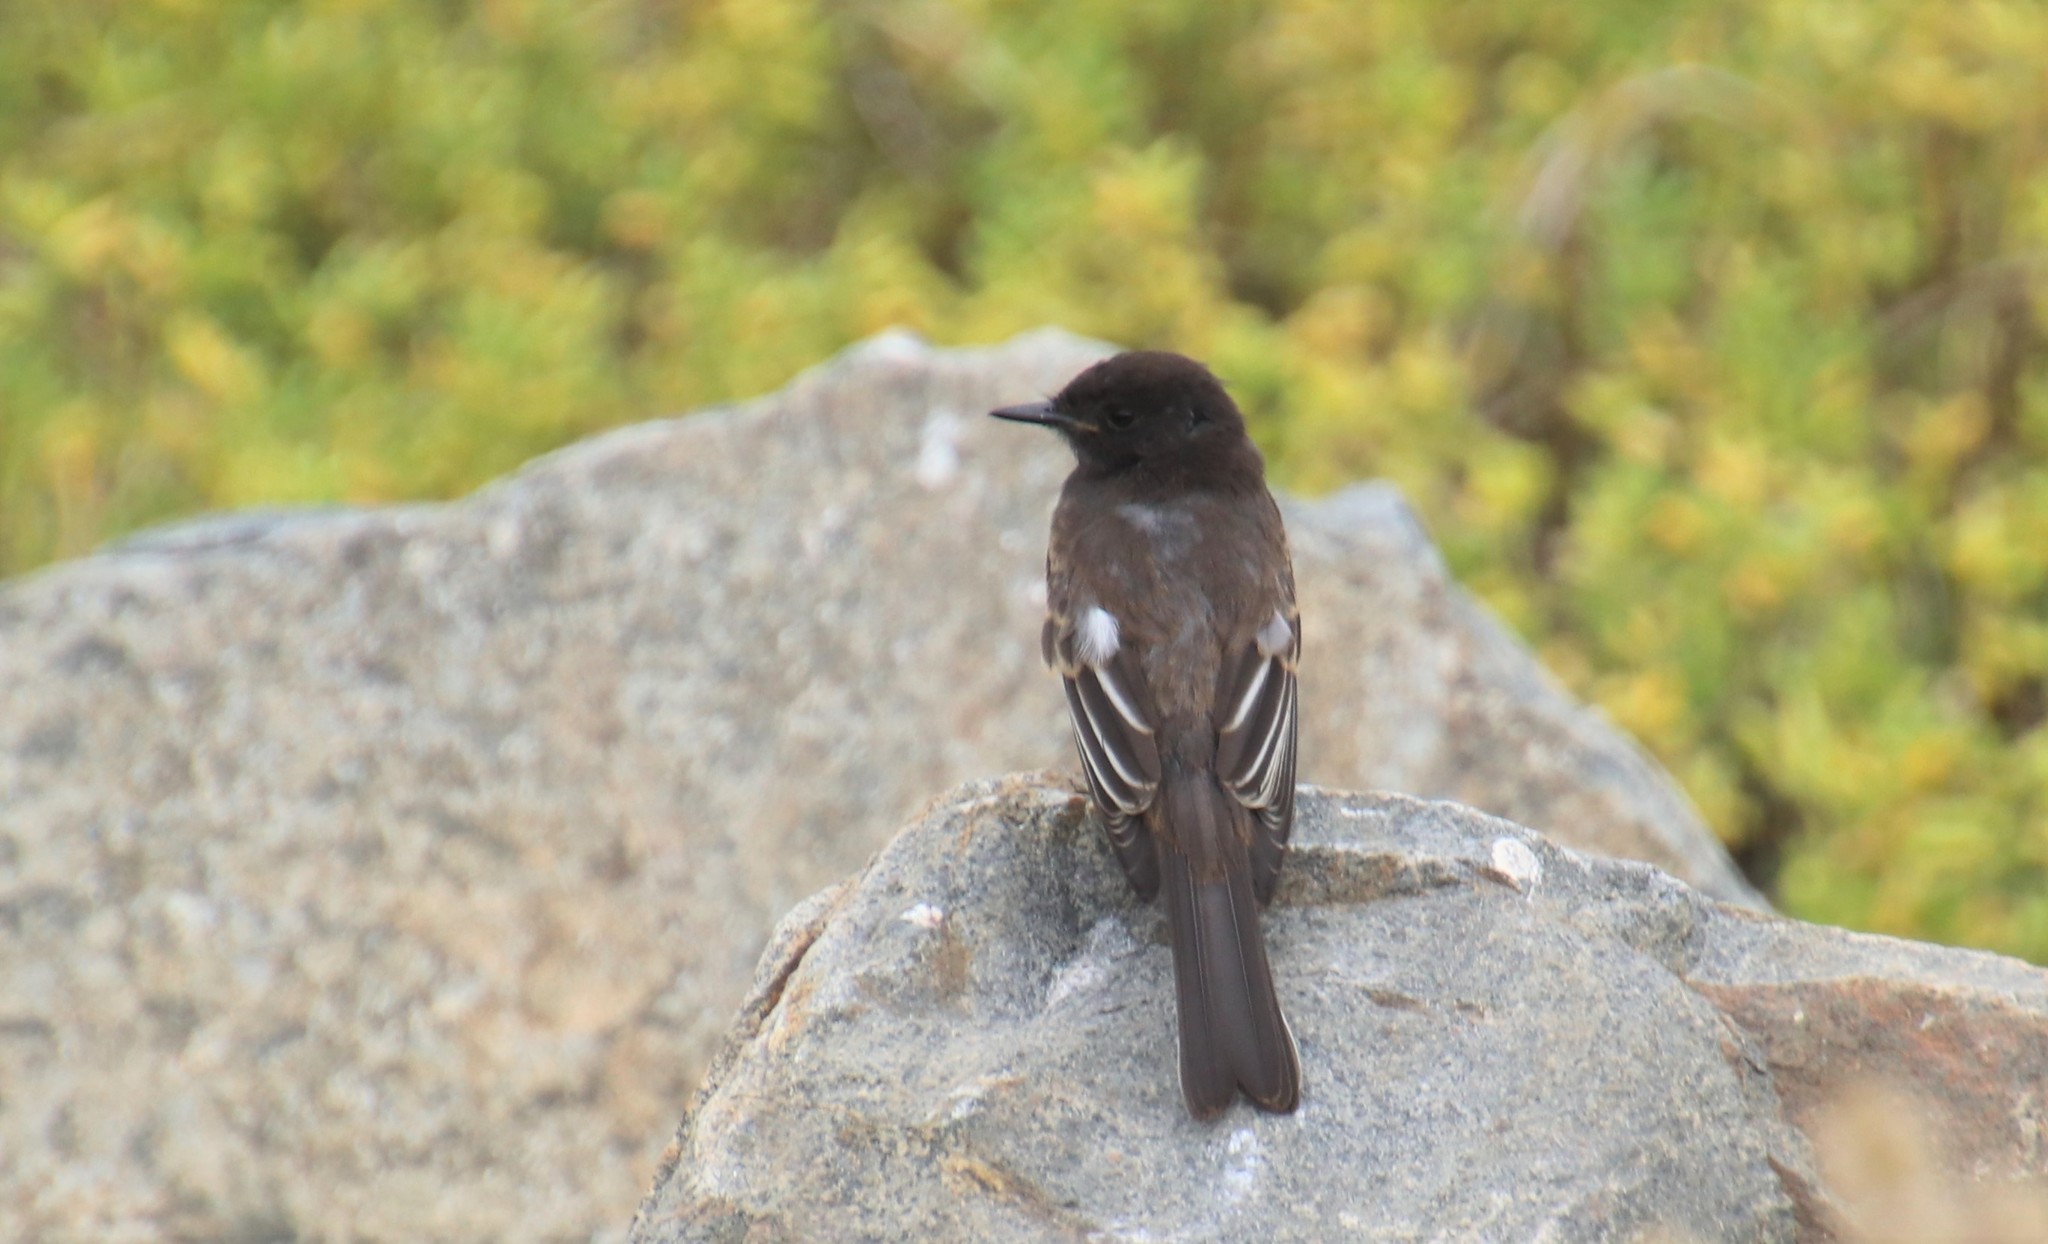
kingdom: Animalia
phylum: Chordata
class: Aves
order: Passeriformes
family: Tyrannidae
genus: Sayornis
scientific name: Sayornis nigricans
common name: Black phoebe
